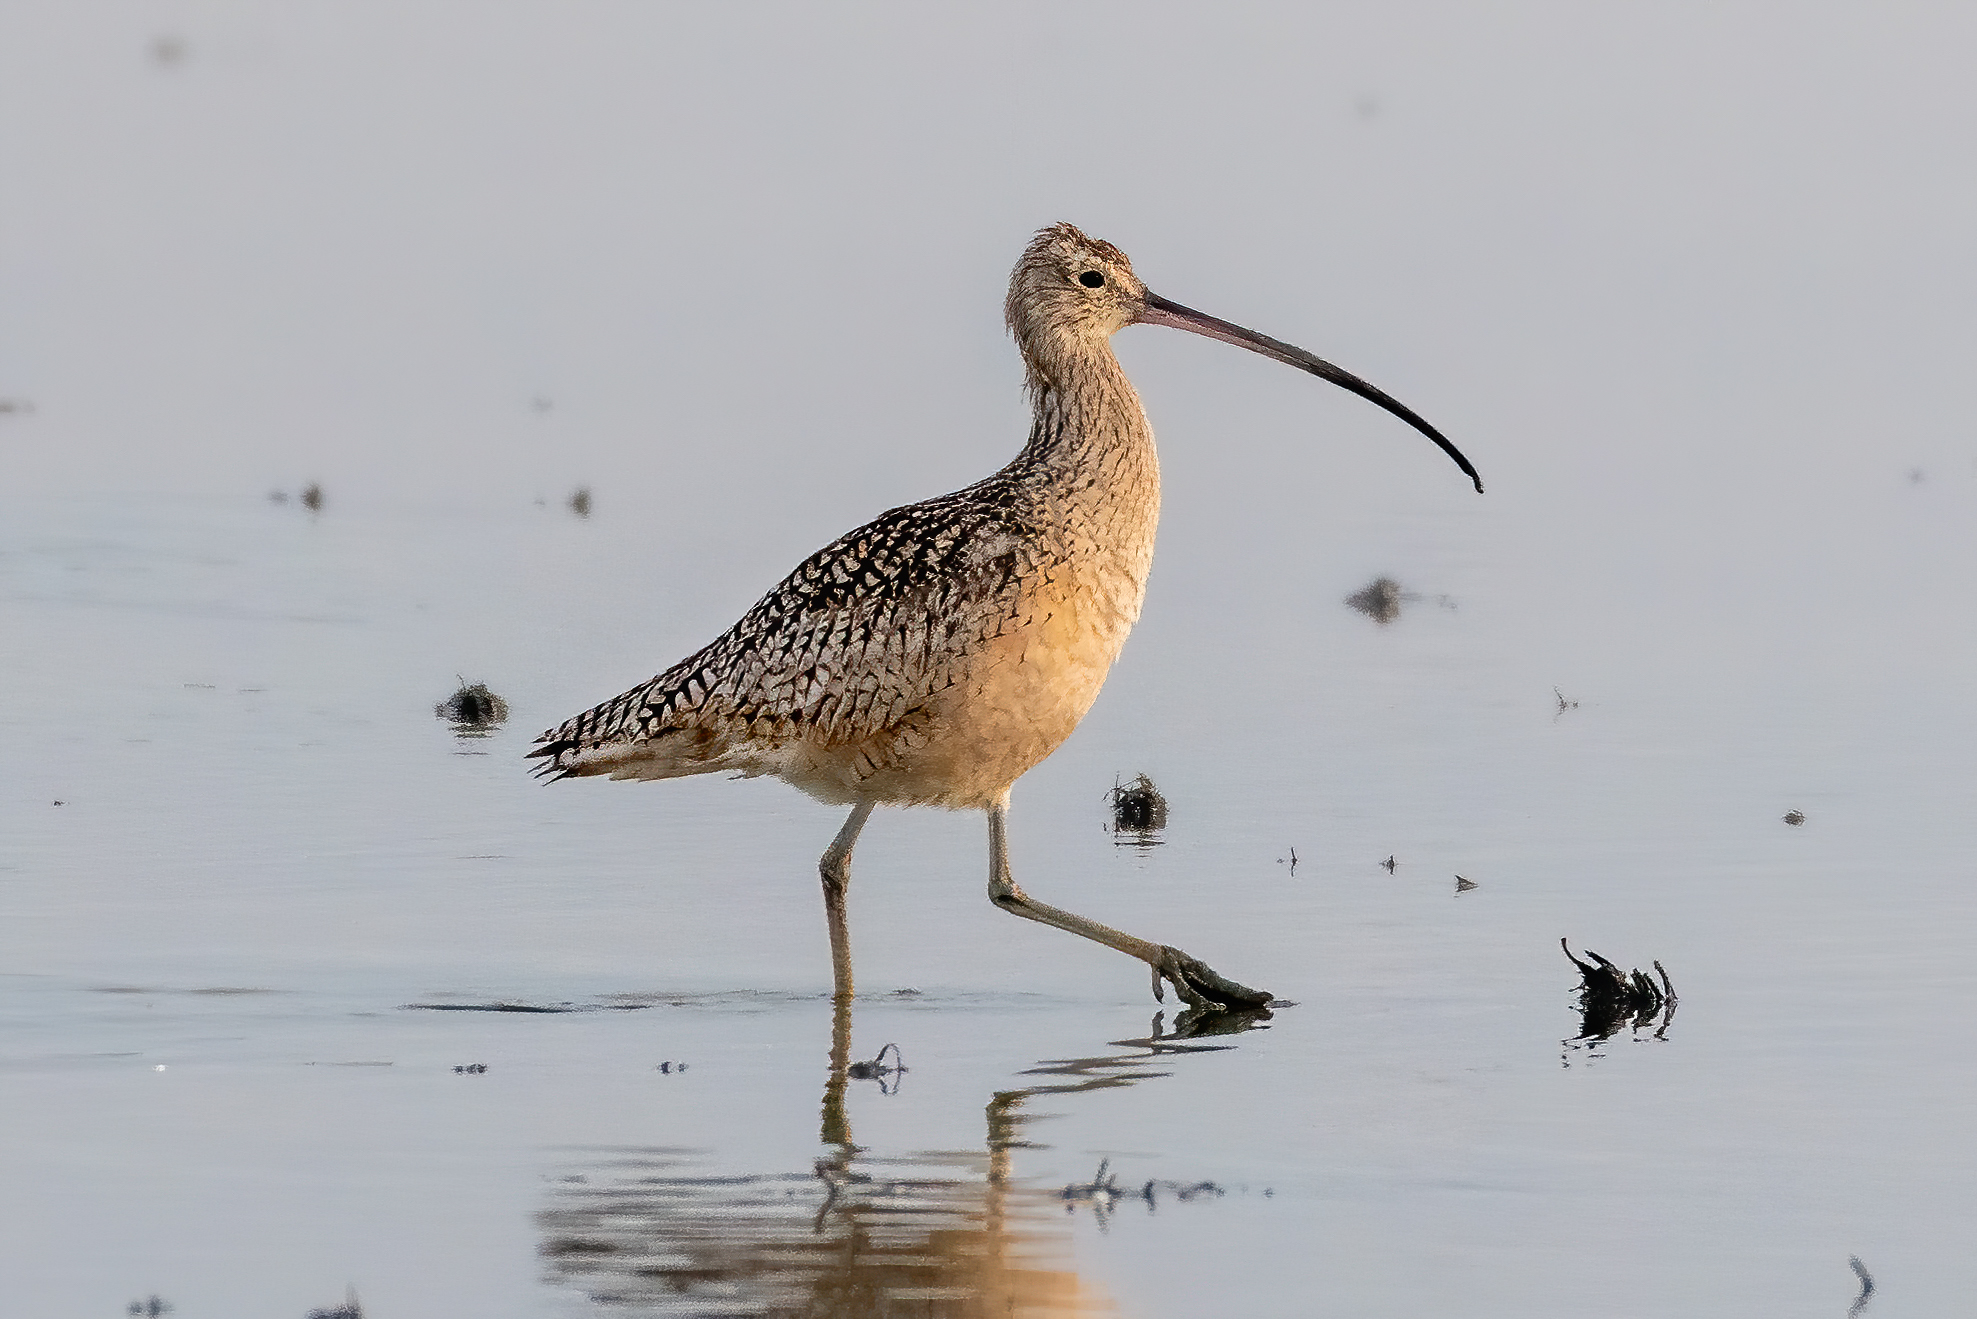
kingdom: Animalia
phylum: Chordata
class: Aves
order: Charadriiformes
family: Scolopacidae
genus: Numenius
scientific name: Numenius americanus
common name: Long-billed curlew
